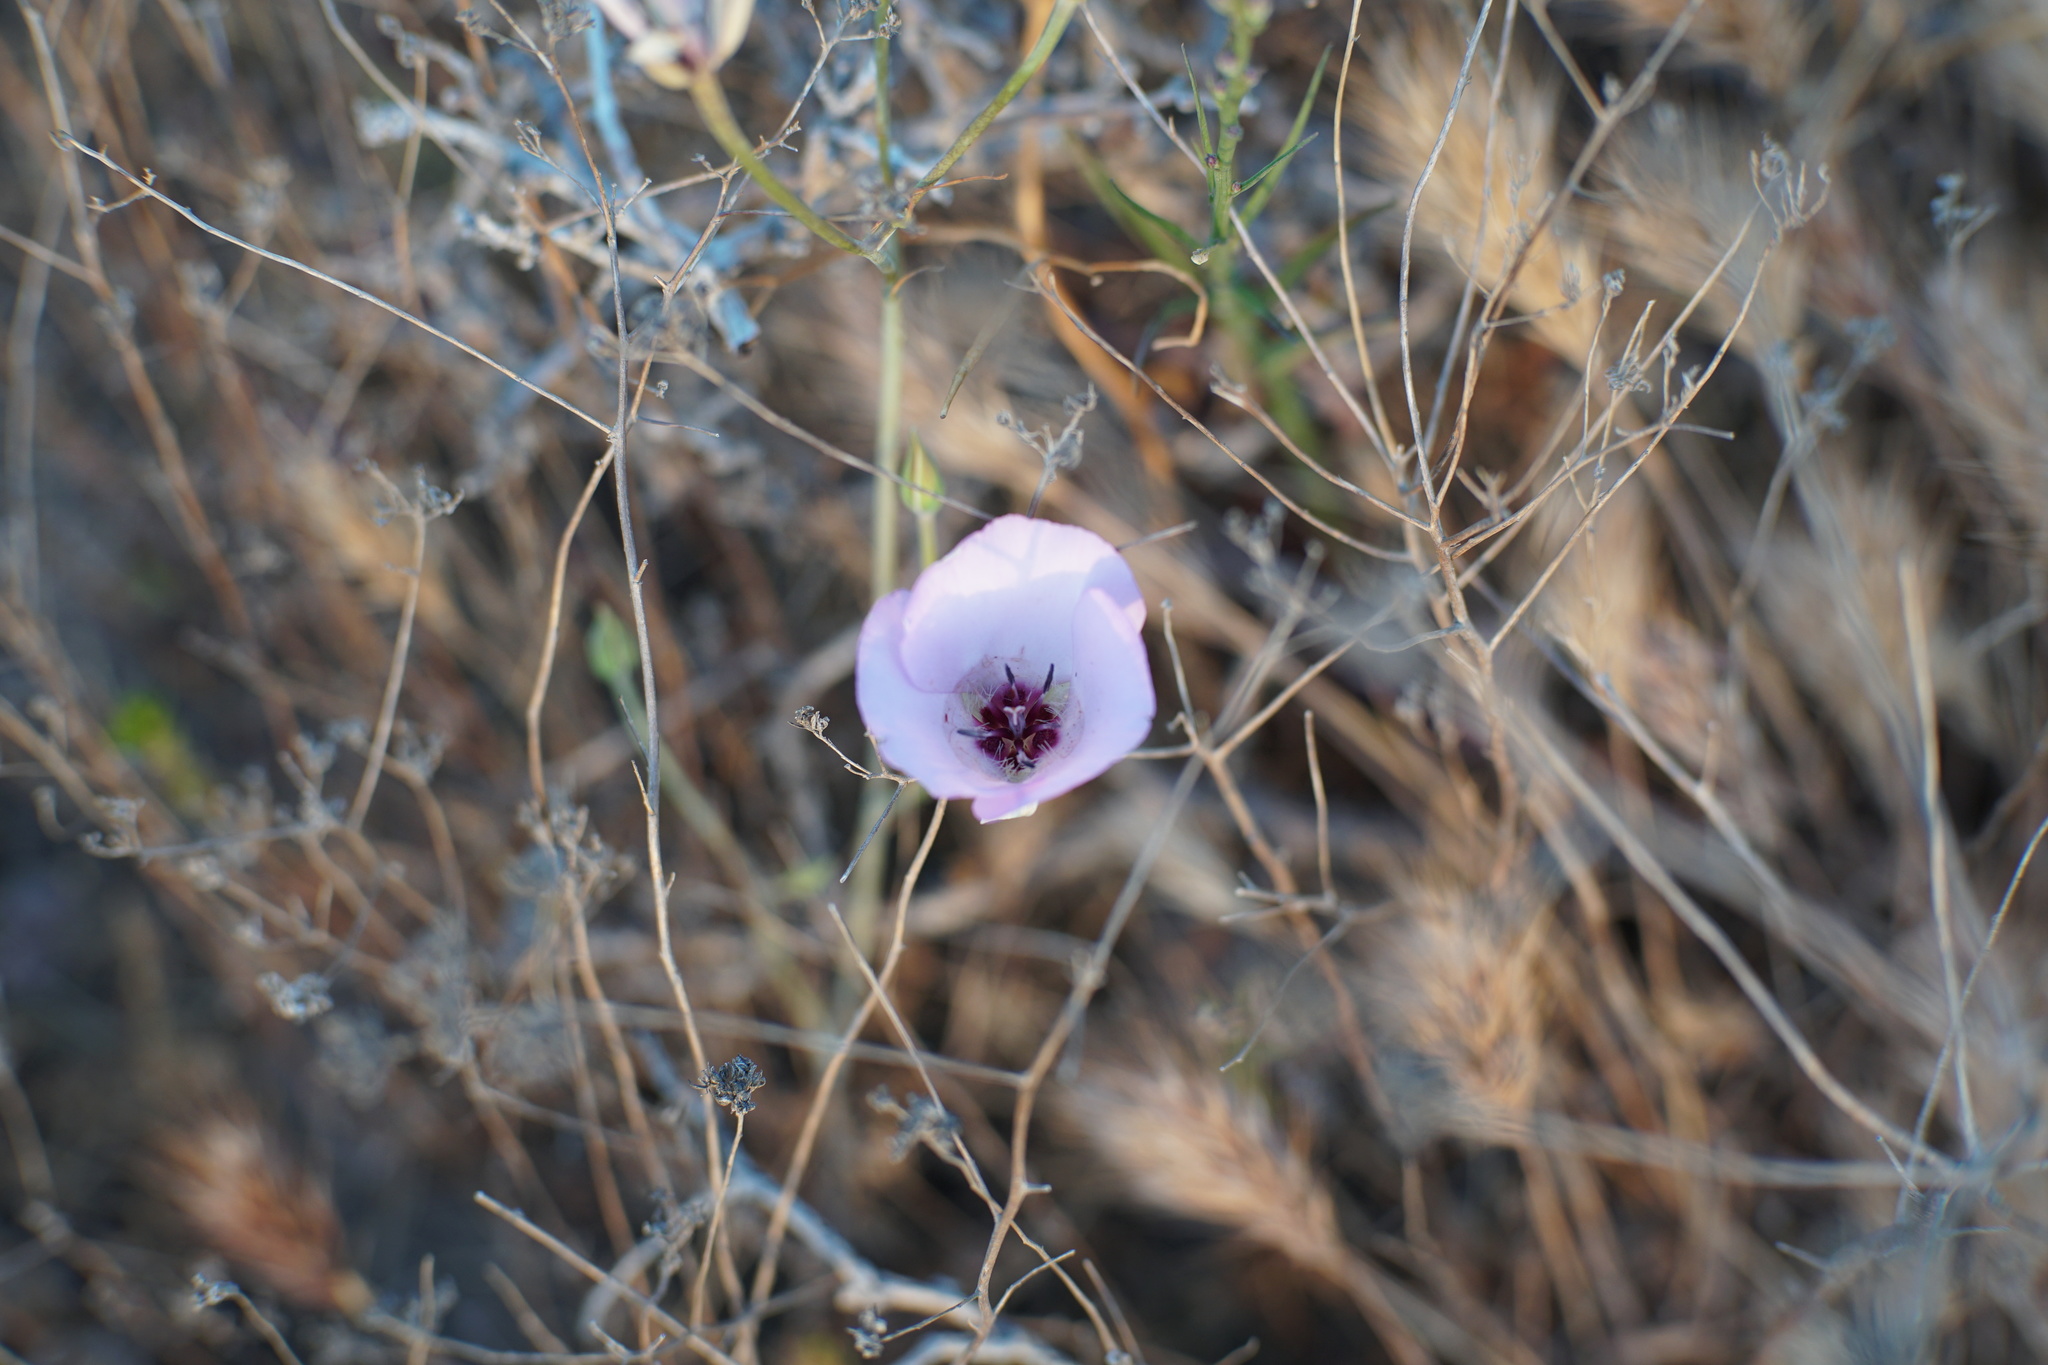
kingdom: Plantae
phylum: Tracheophyta
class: Liliopsida
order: Liliales
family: Liliaceae
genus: Calochortus
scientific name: Calochortus splendens
